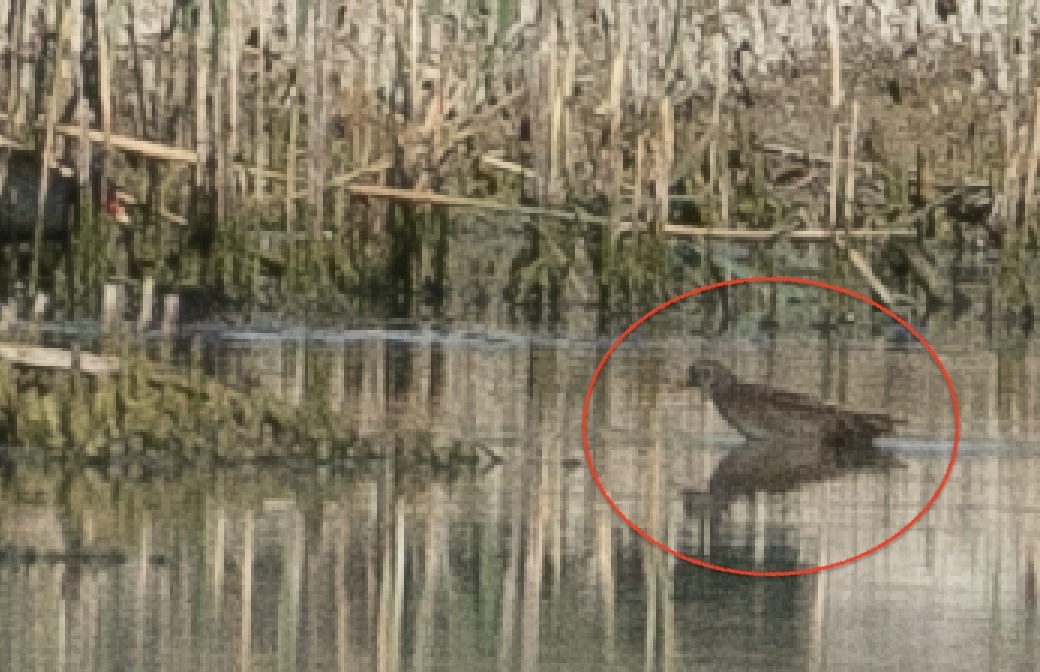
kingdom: Animalia
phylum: Chordata
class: Aves
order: Gruiformes
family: Rallidae
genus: Porzana
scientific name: Porzana porzana
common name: Spotted crake
